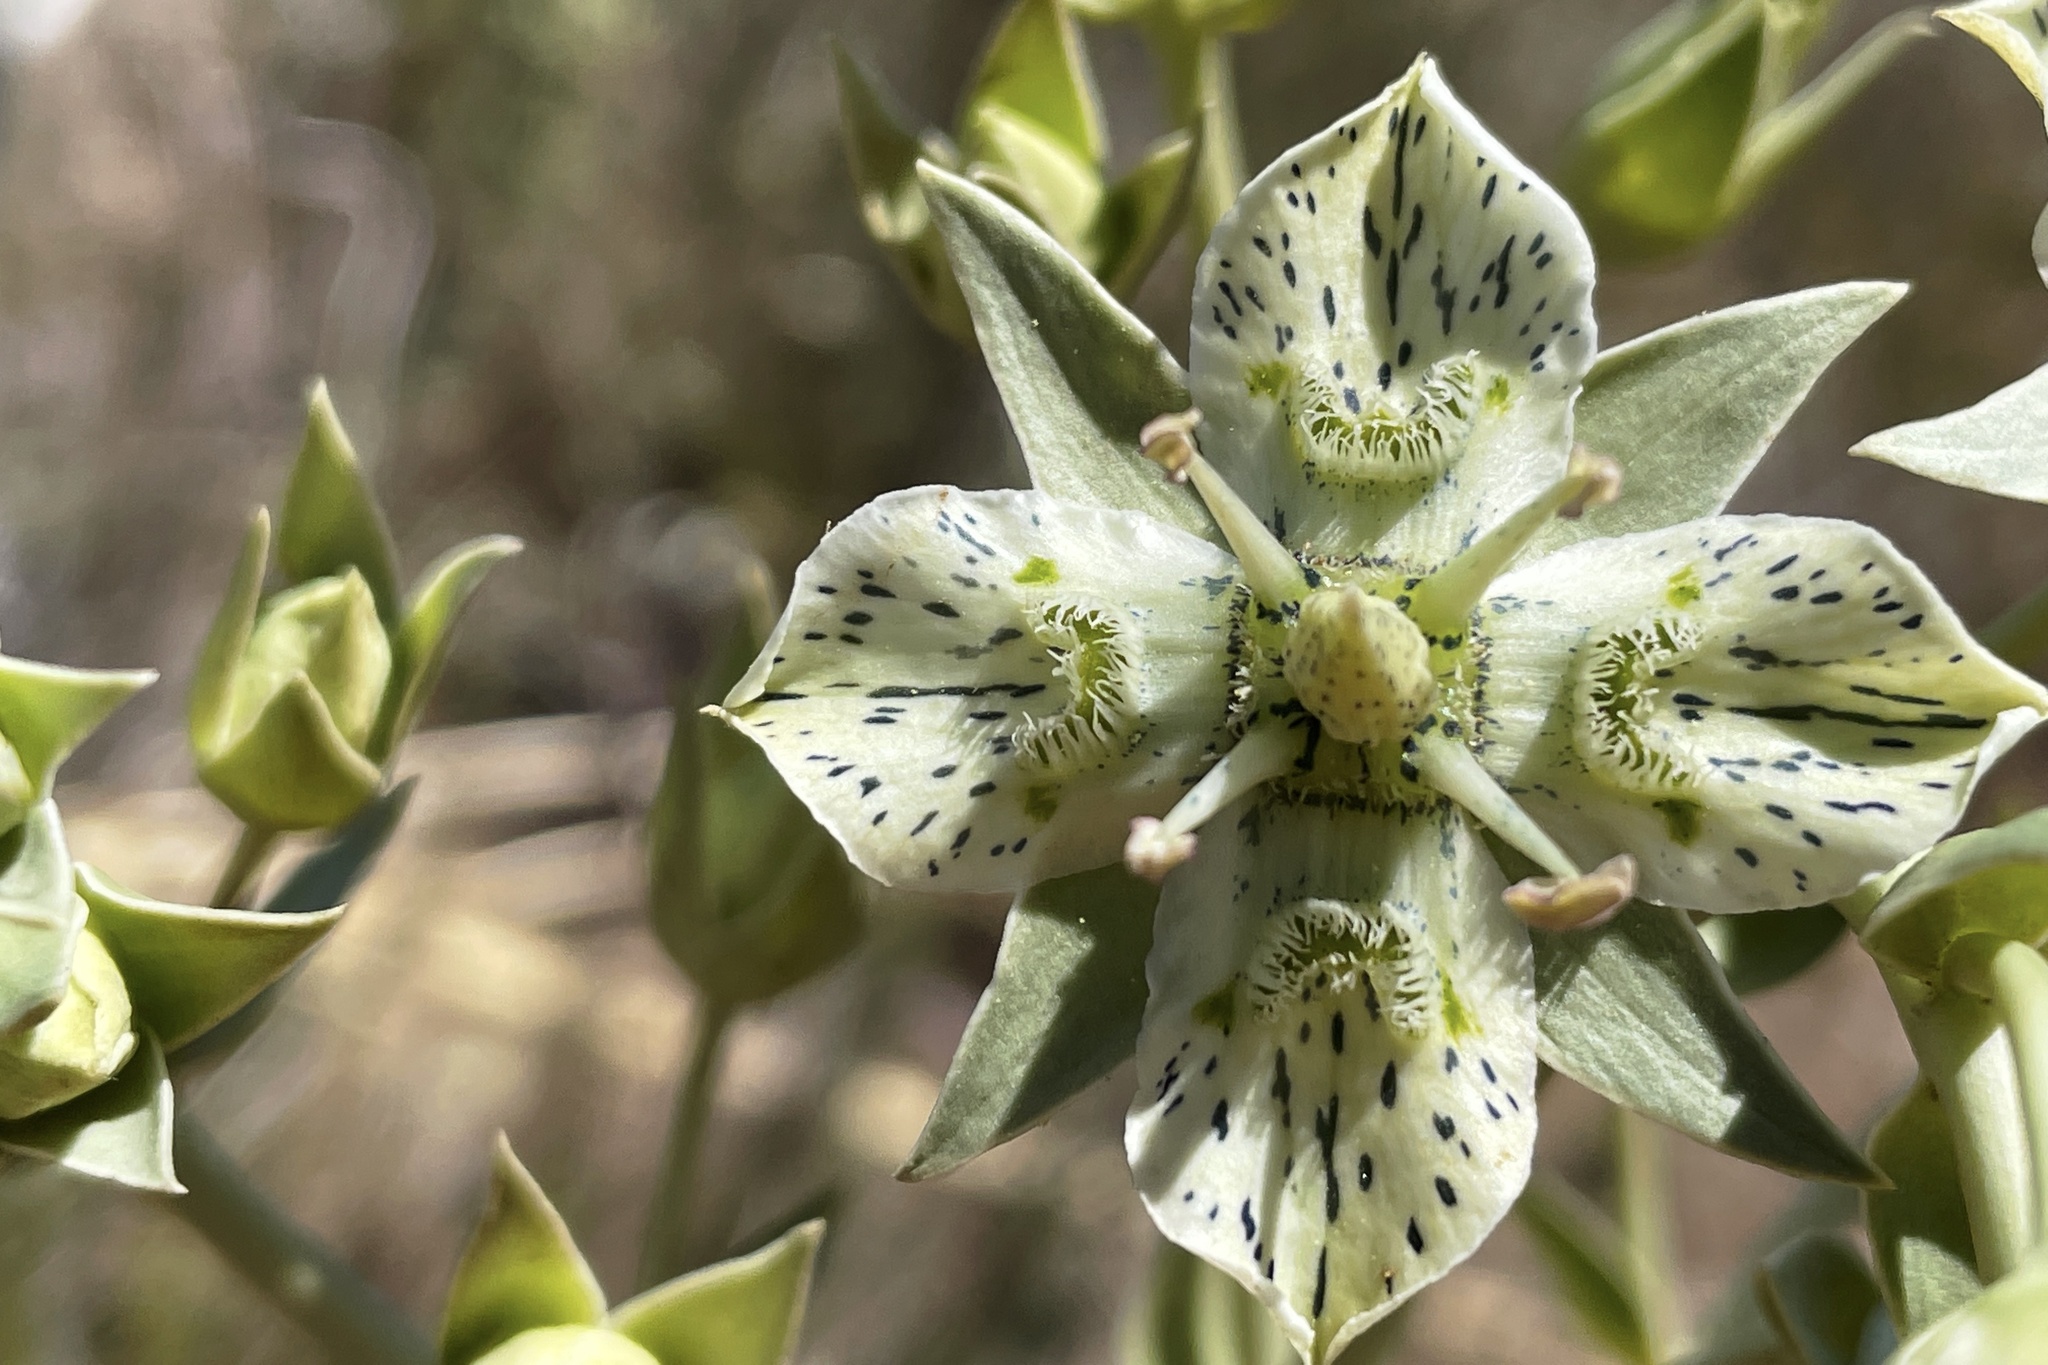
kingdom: Plantae
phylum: Tracheophyta
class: Magnoliopsida
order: Gentianales
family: Gentianaceae
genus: Frasera
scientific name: Frasera parryi
